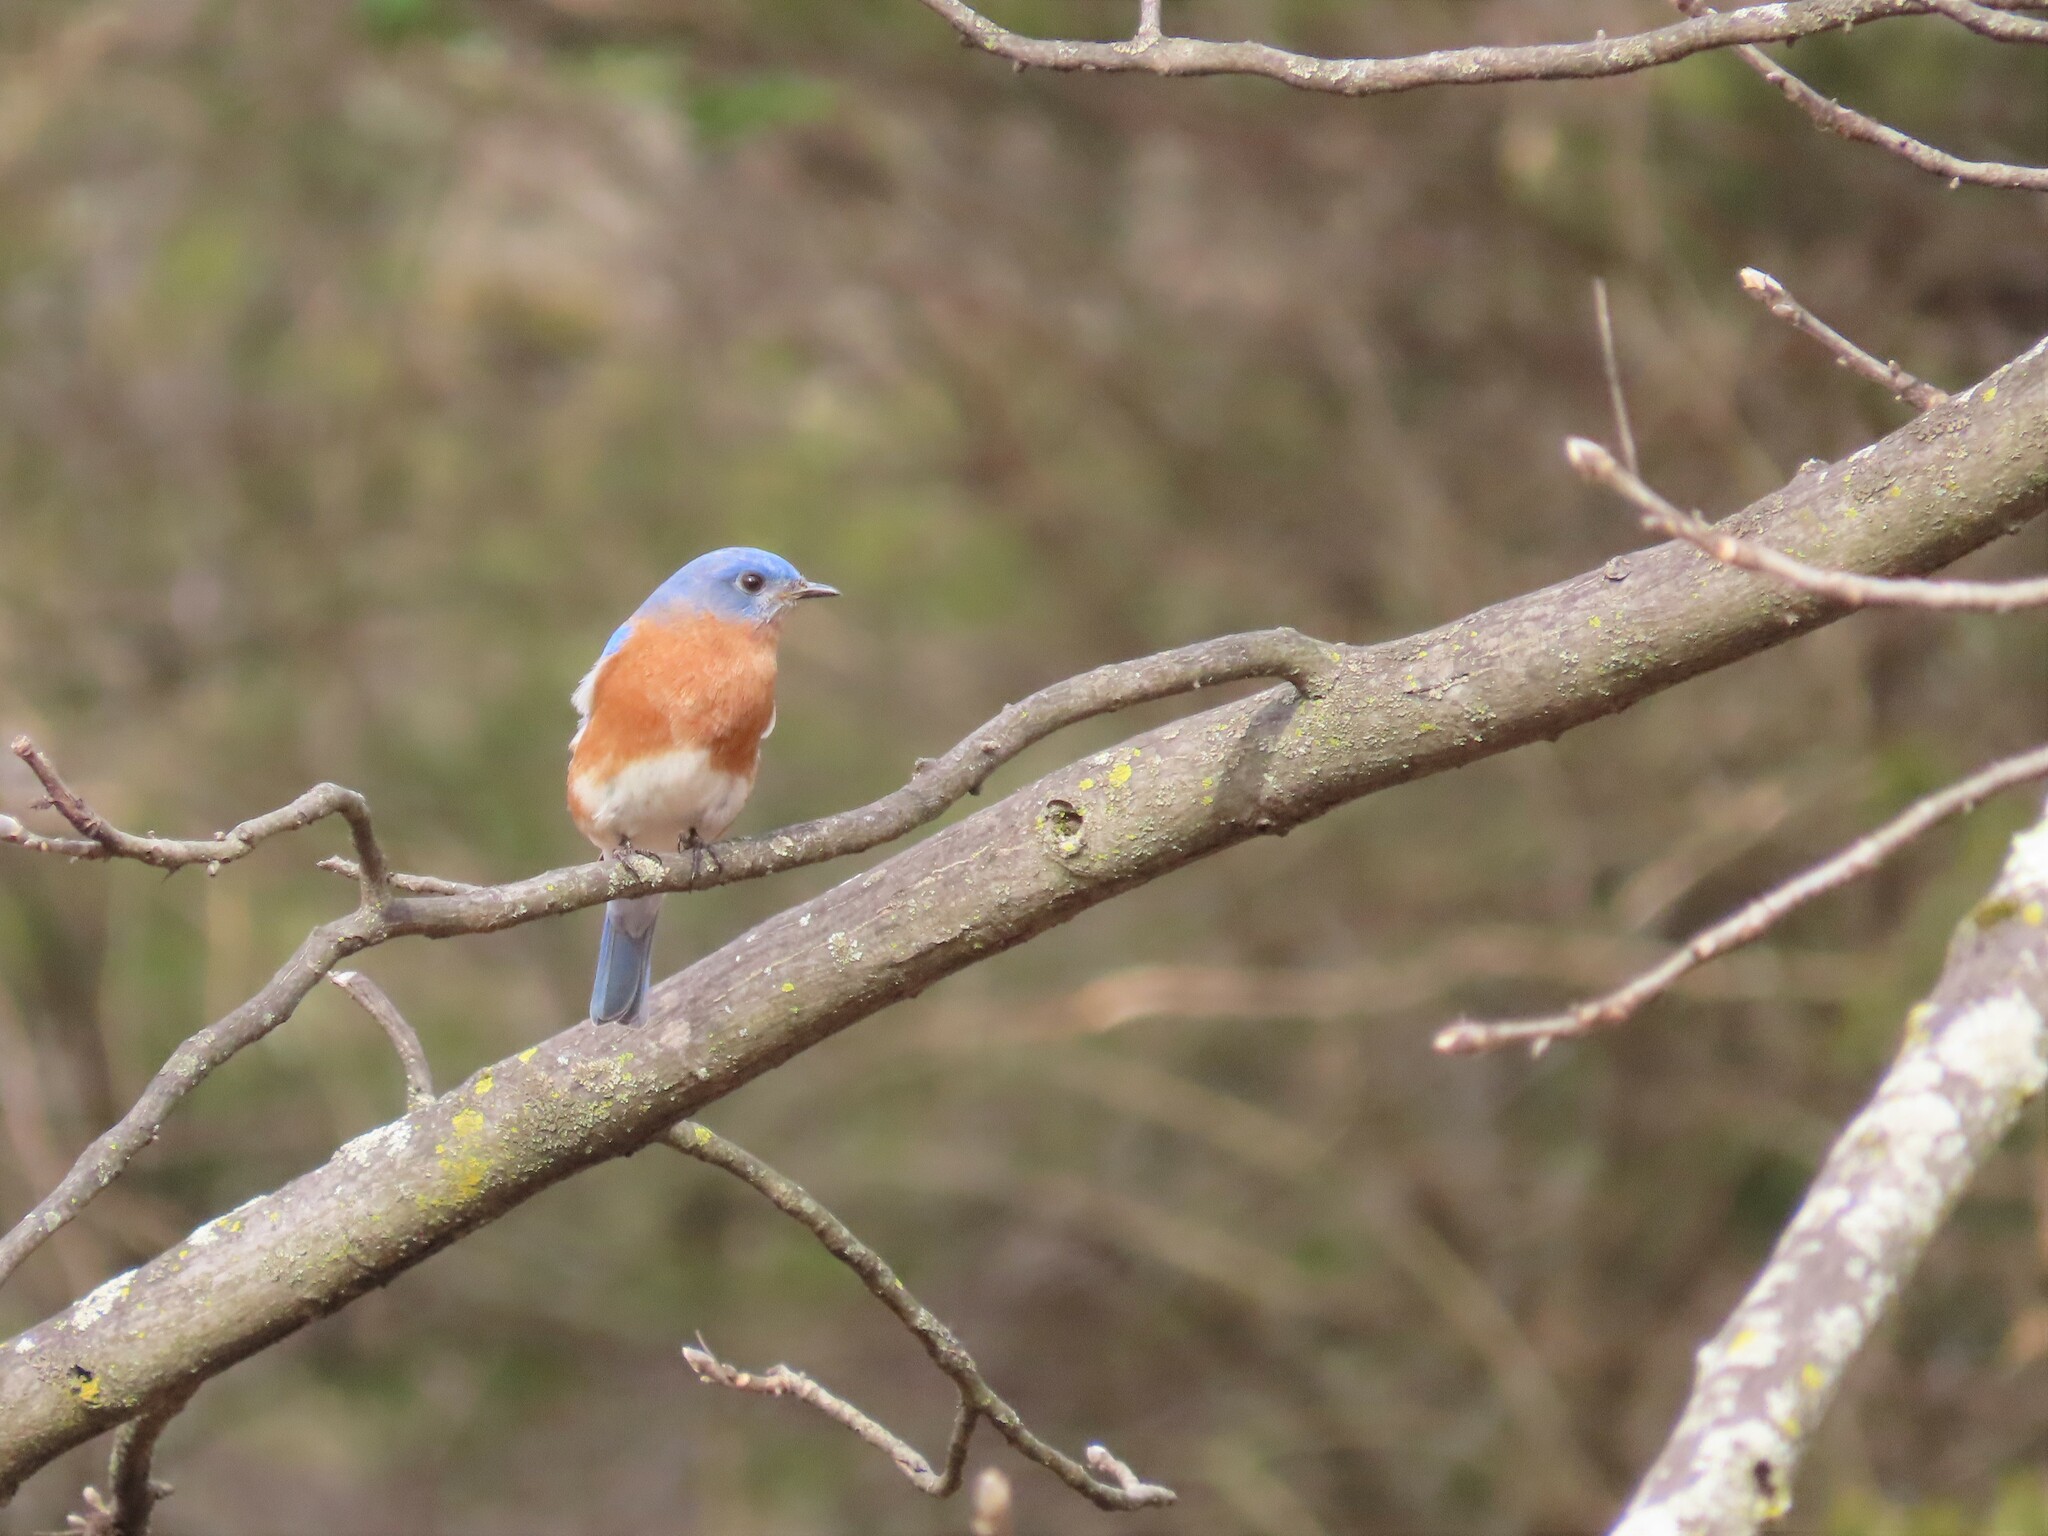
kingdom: Animalia
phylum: Chordata
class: Aves
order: Passeriformes
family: Turdidae
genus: Sialia
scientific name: Sialia sialis
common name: Eastern bluebird
